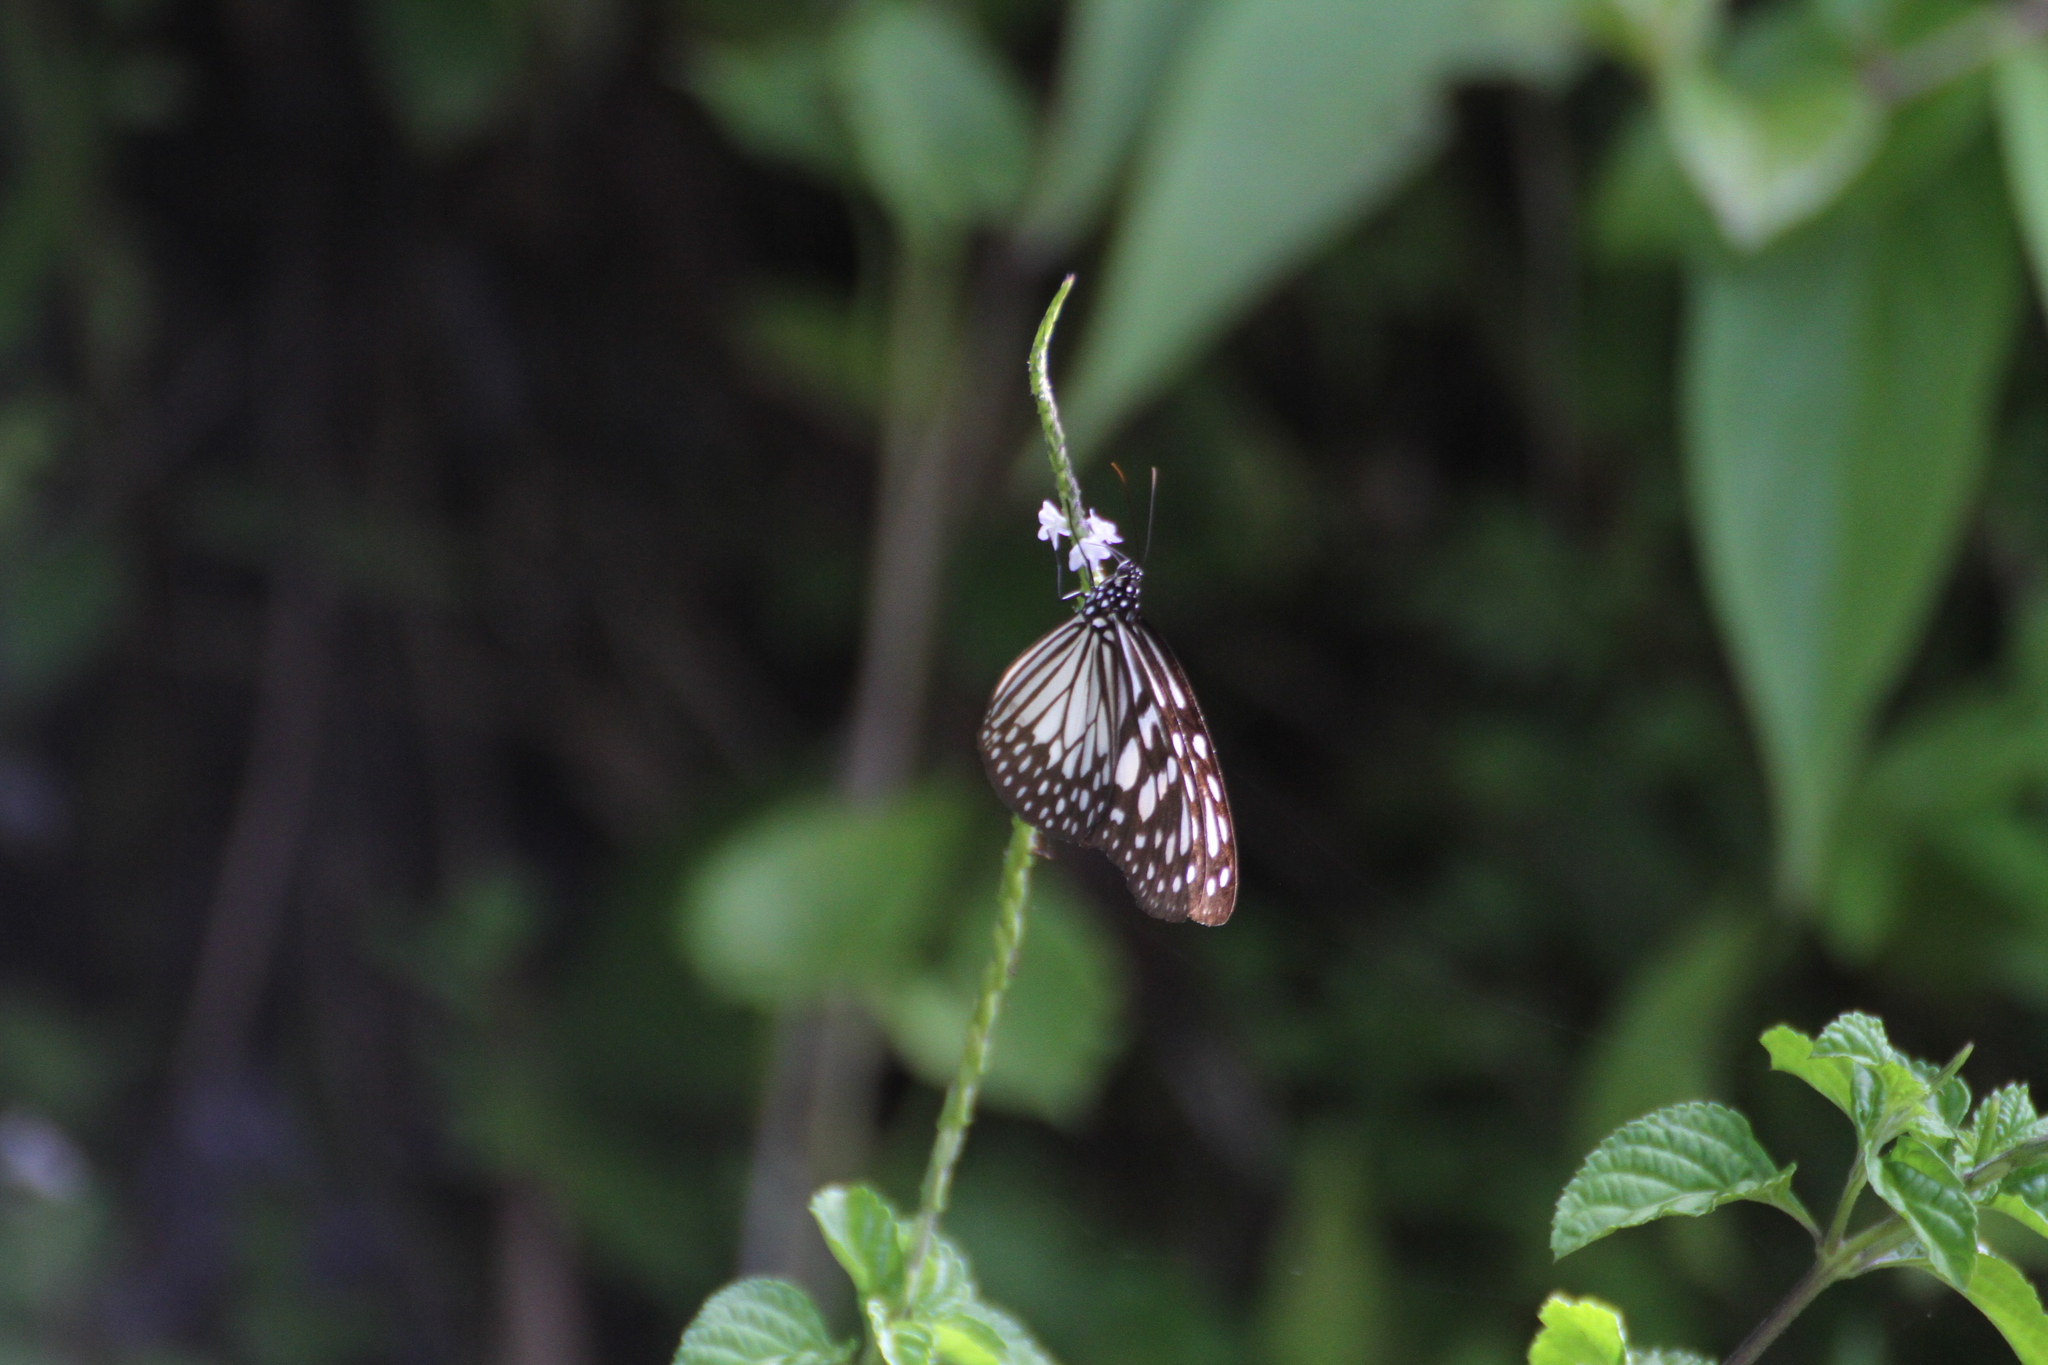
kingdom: Animalia
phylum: Arthropoda
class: Insecta
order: Lepidoptera
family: Nymphalidae
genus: Ideopsis
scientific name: Ideopsis juventa
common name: Grey glassy tiger
